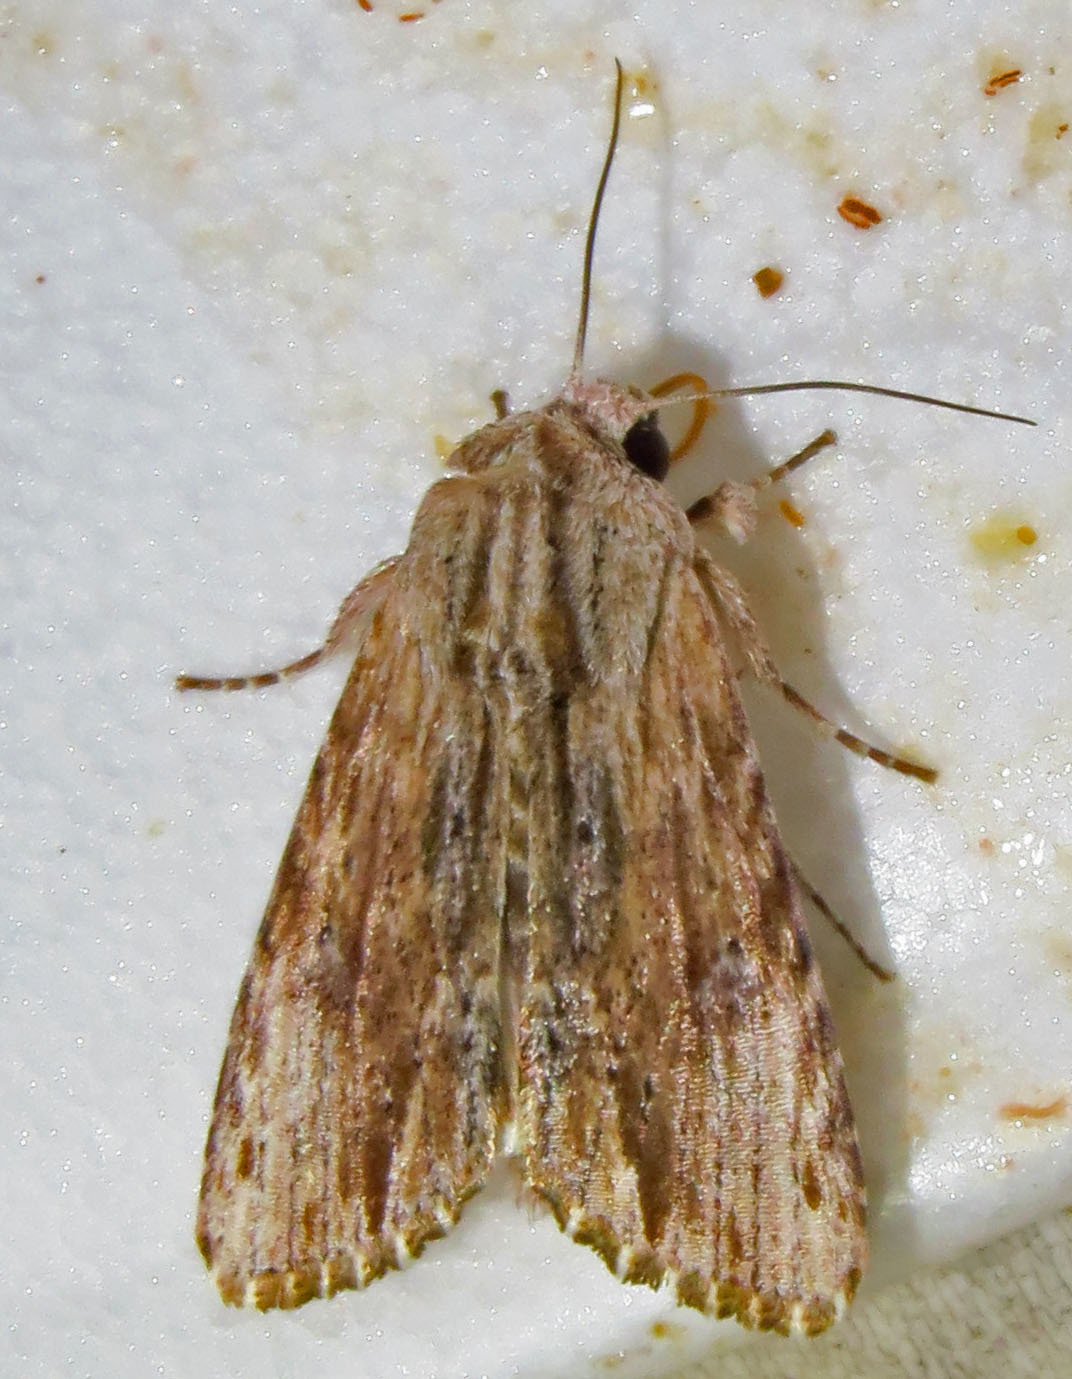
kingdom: Animalia
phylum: Arthropoda
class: Insecta
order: Lepidoptera
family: Noctuidae
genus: Spodoptera
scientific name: Spodoptera eridania
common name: Southern army worm
